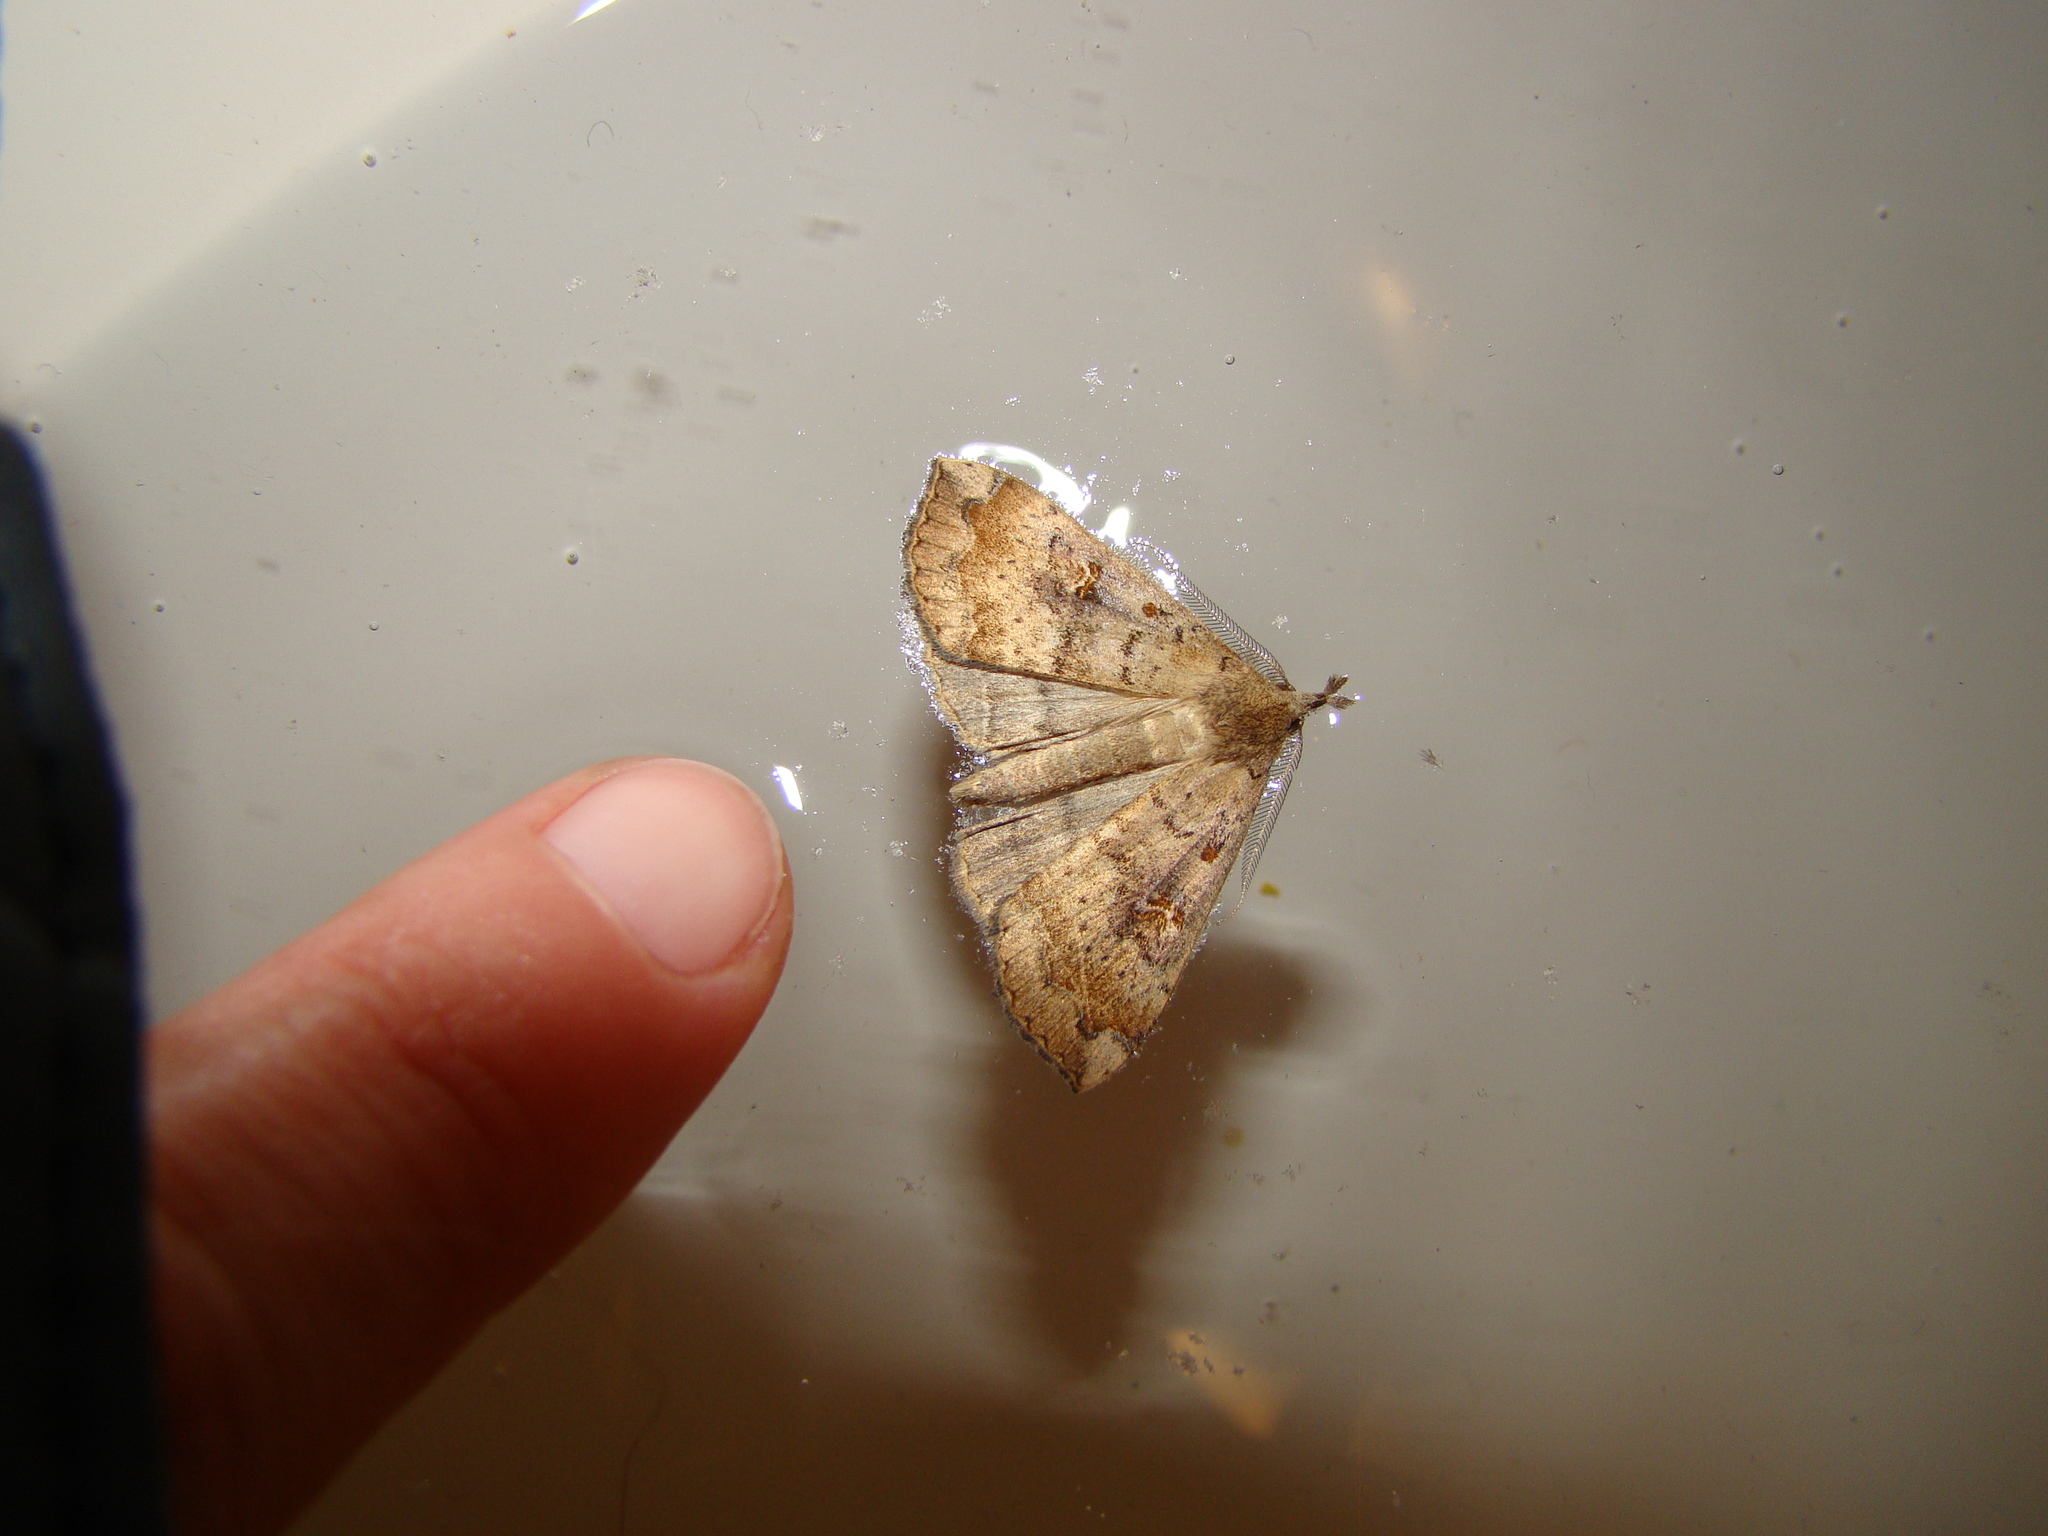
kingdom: Animalia
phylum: Arthropoda
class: Insecta
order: Lepidoptera
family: Erebidae
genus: Rhapsa
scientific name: Rhapsa scotosialis
